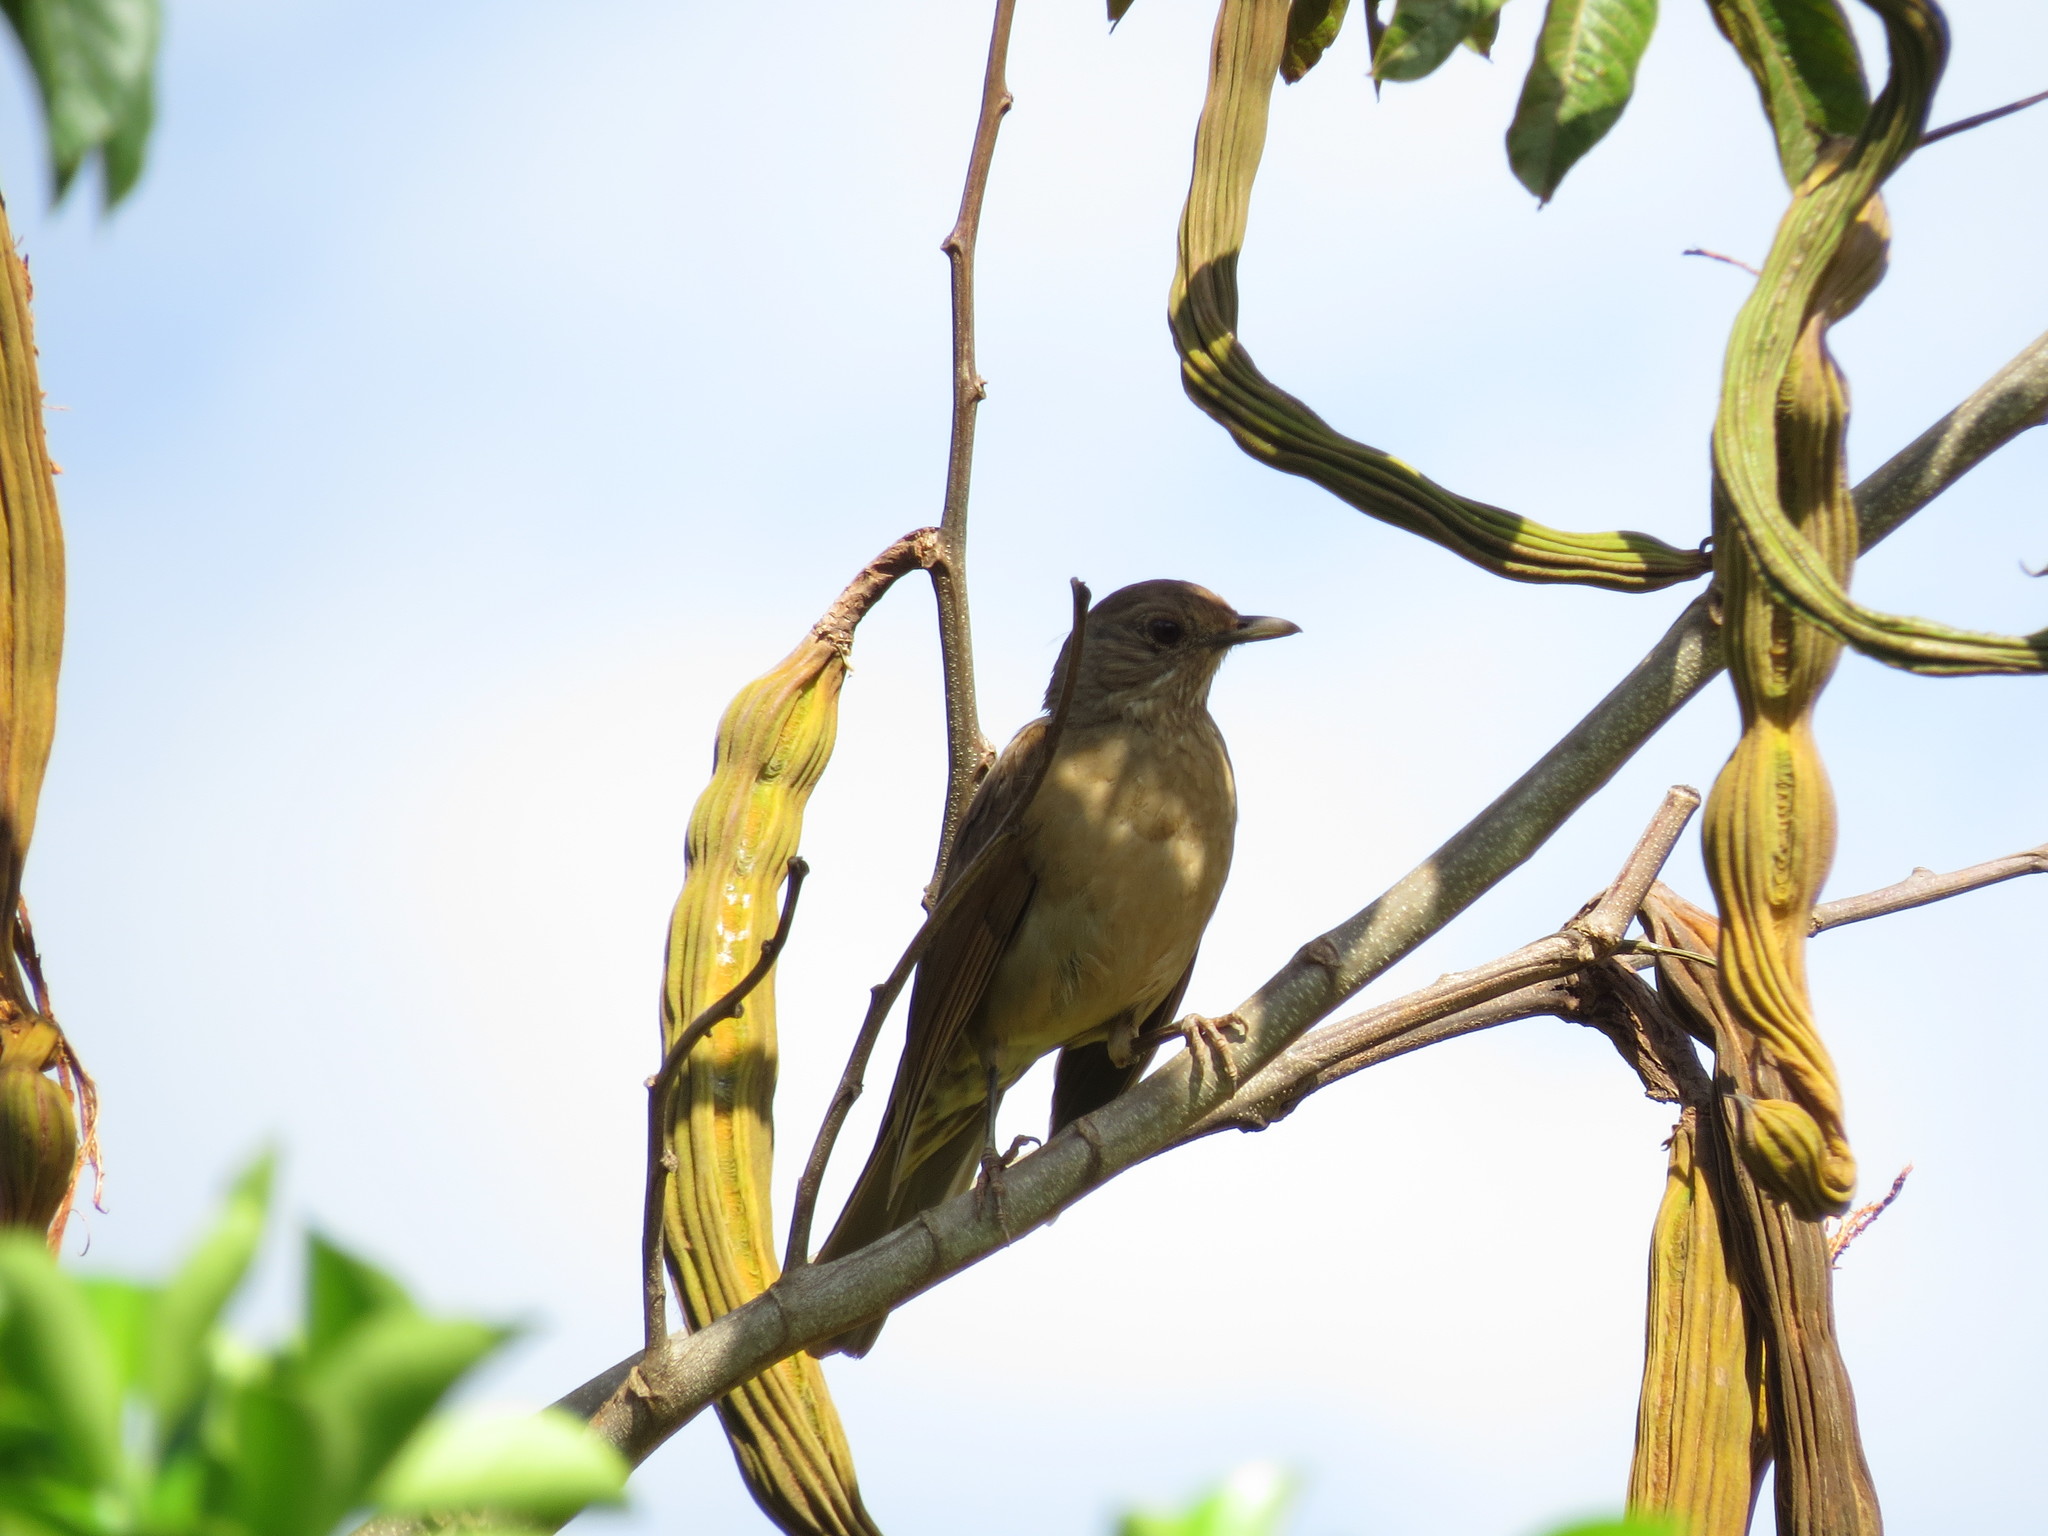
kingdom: Animalia
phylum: Chordata
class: Aves
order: Passeriformes
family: Turdidae
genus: Turdus
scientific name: Turdus leucomelas
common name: Pale-breasted thrush
